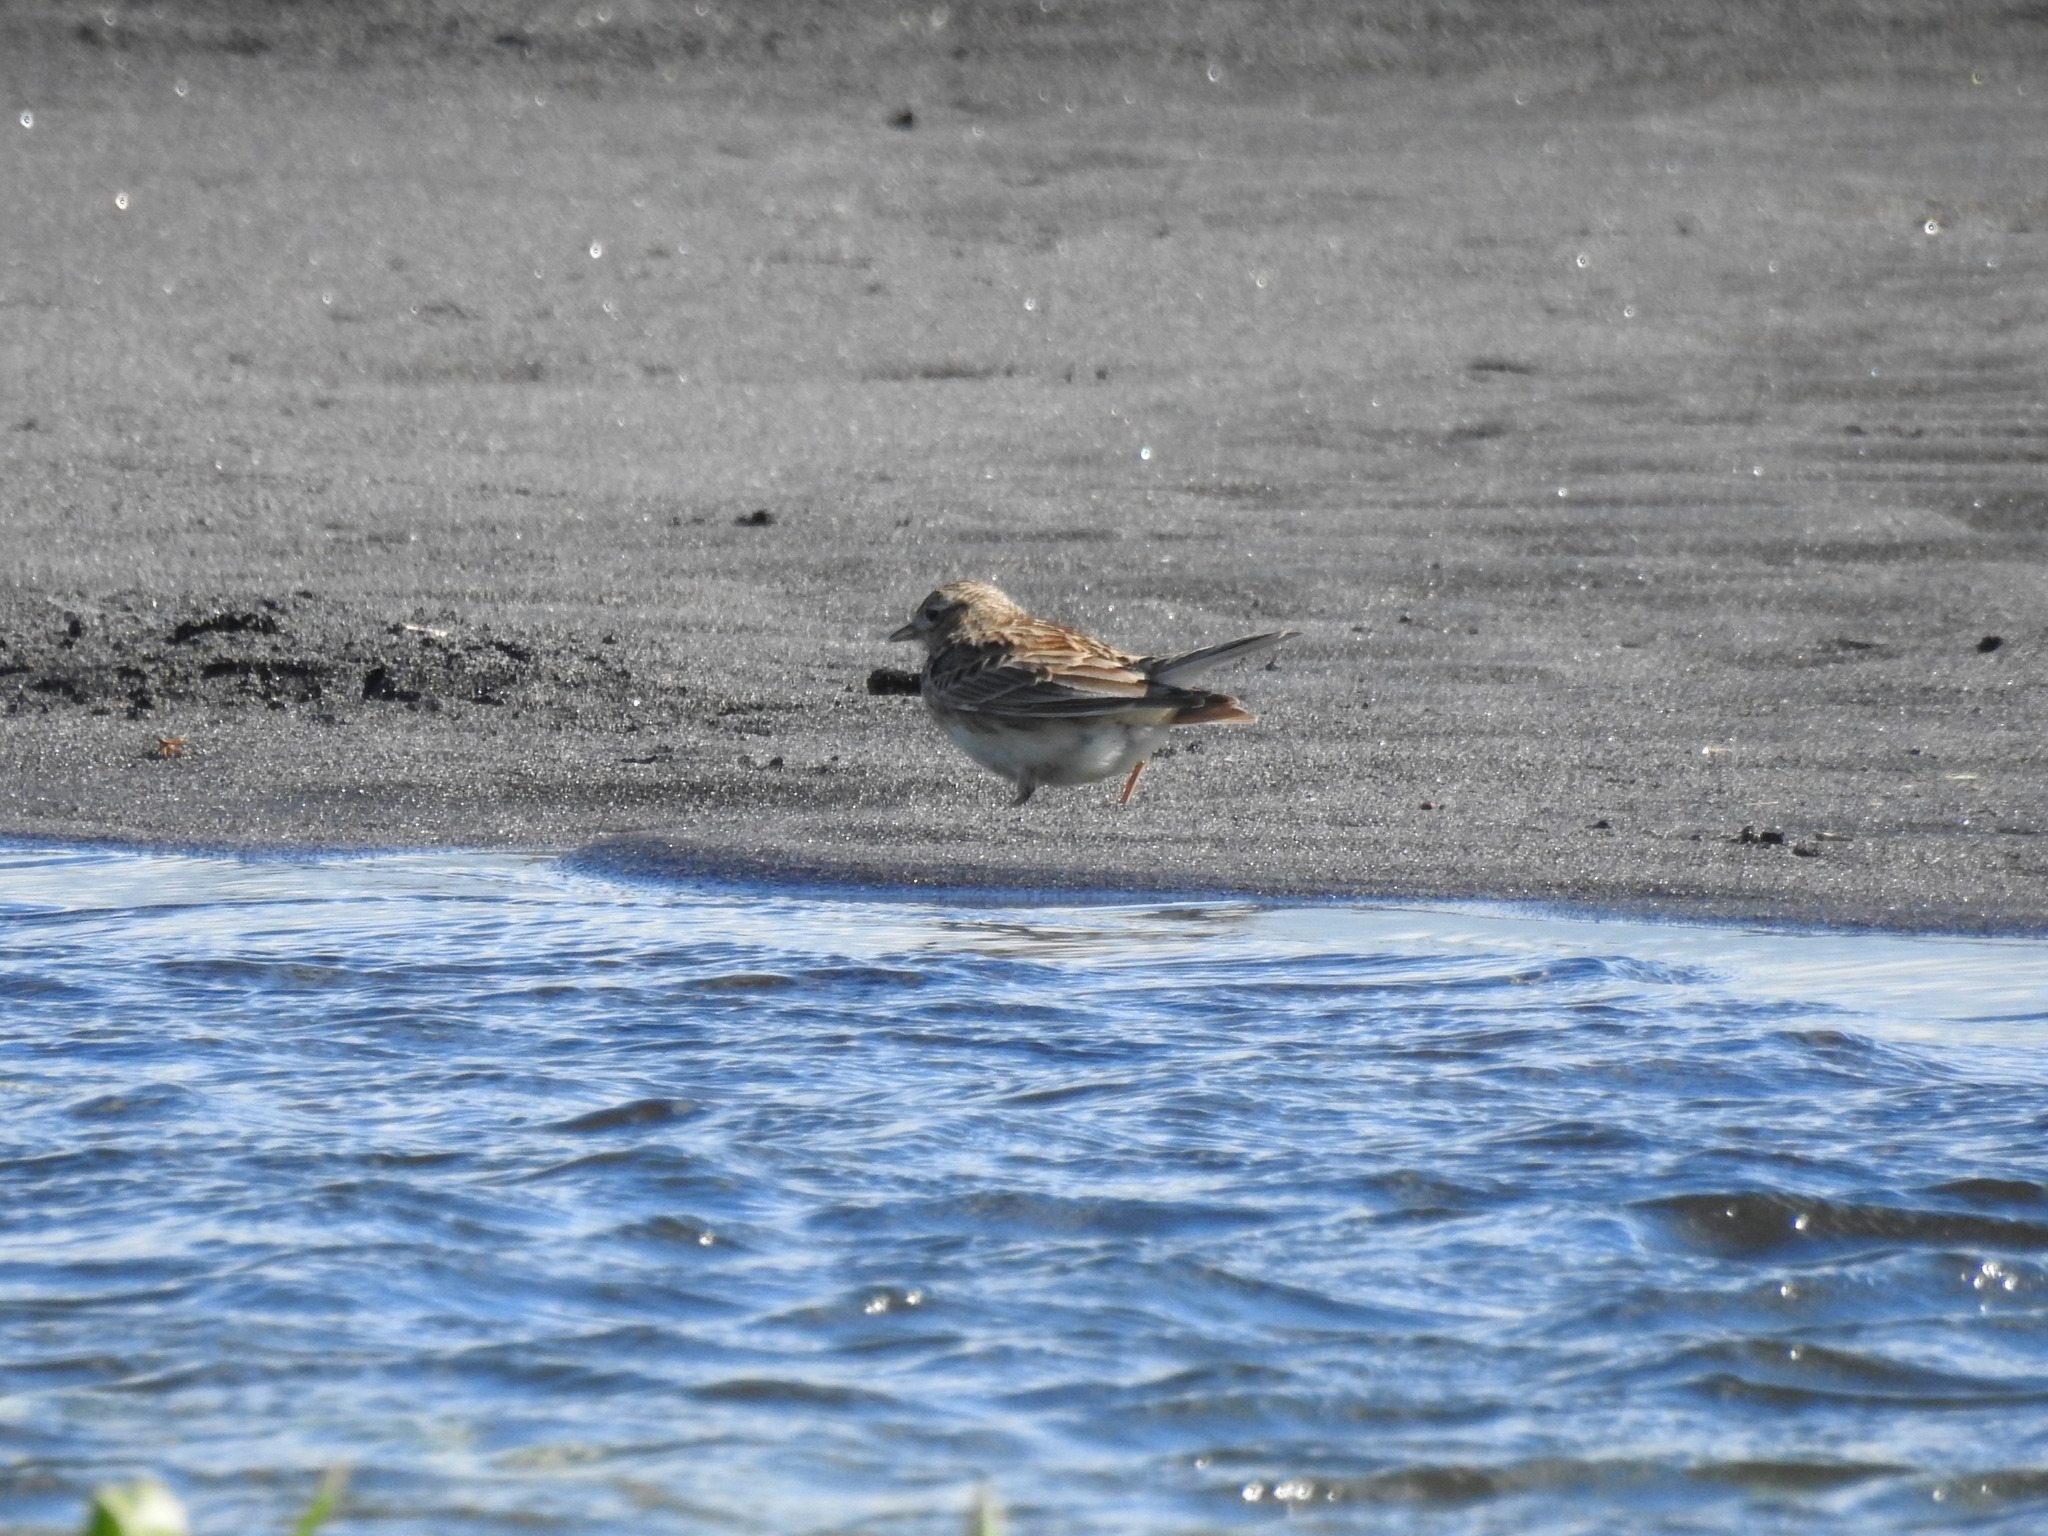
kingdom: Animalia
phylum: Chordata
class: Aves
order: Passeriformes
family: Alaudidae
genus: Alauda
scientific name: Alauda arvensis
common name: Eurasian skylark
